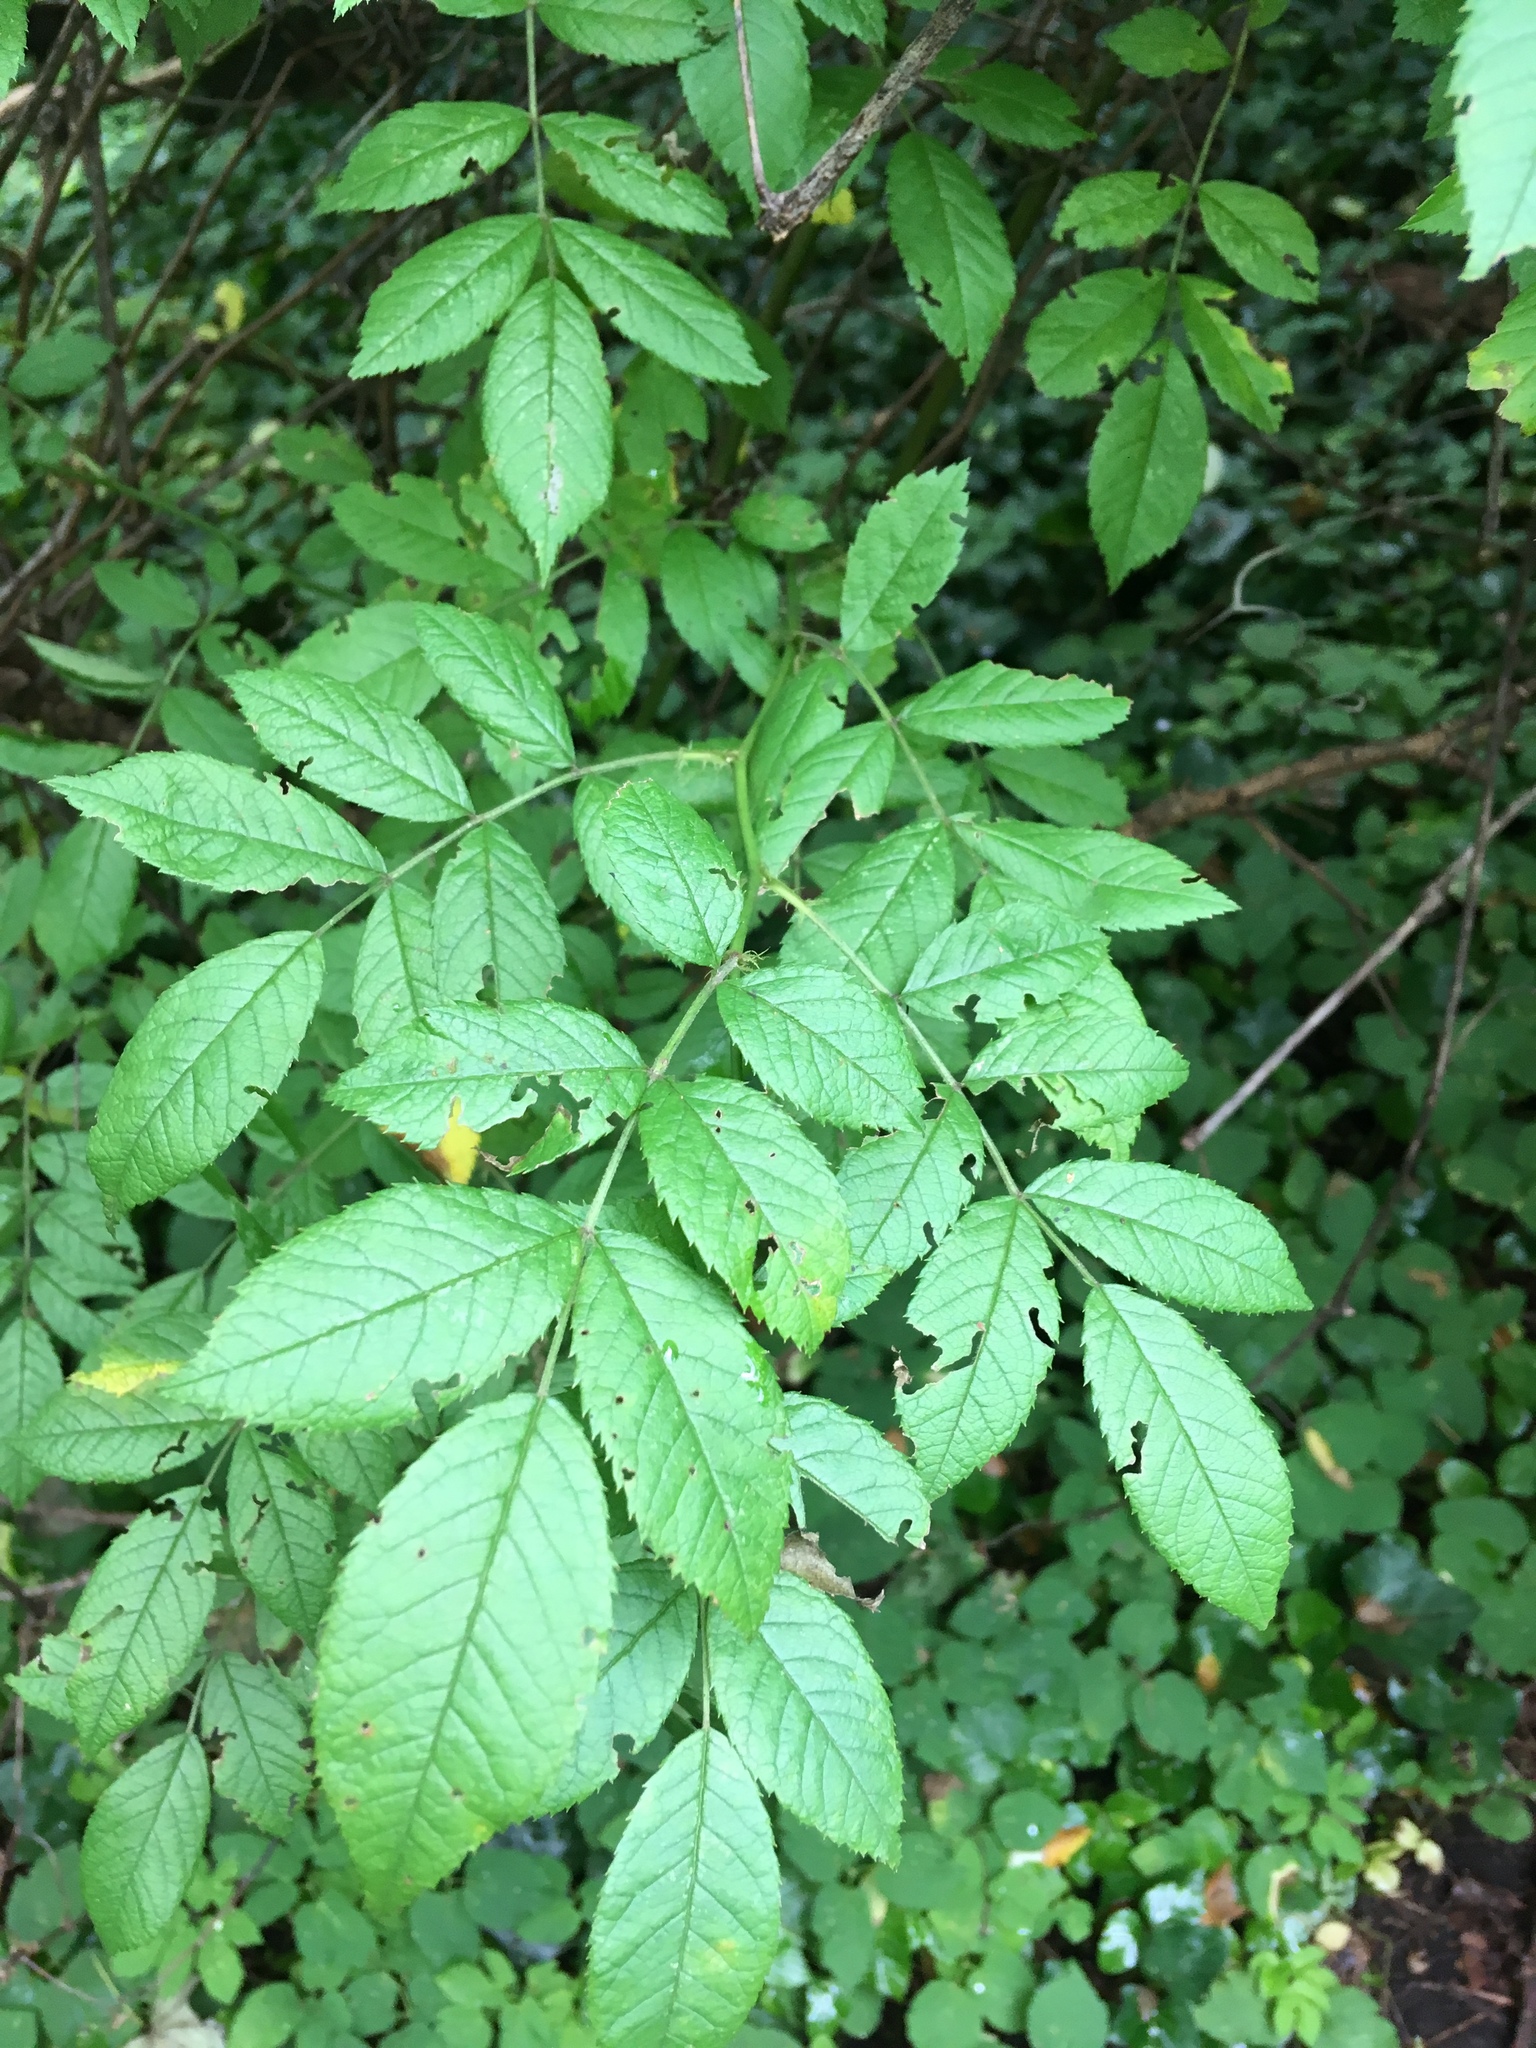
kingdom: Plantae
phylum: Tracheophyta
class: Magnoliopsida
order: Rosales
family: Rosaceae
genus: Rosa
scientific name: Rosa multiflora
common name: Multiflora rose
